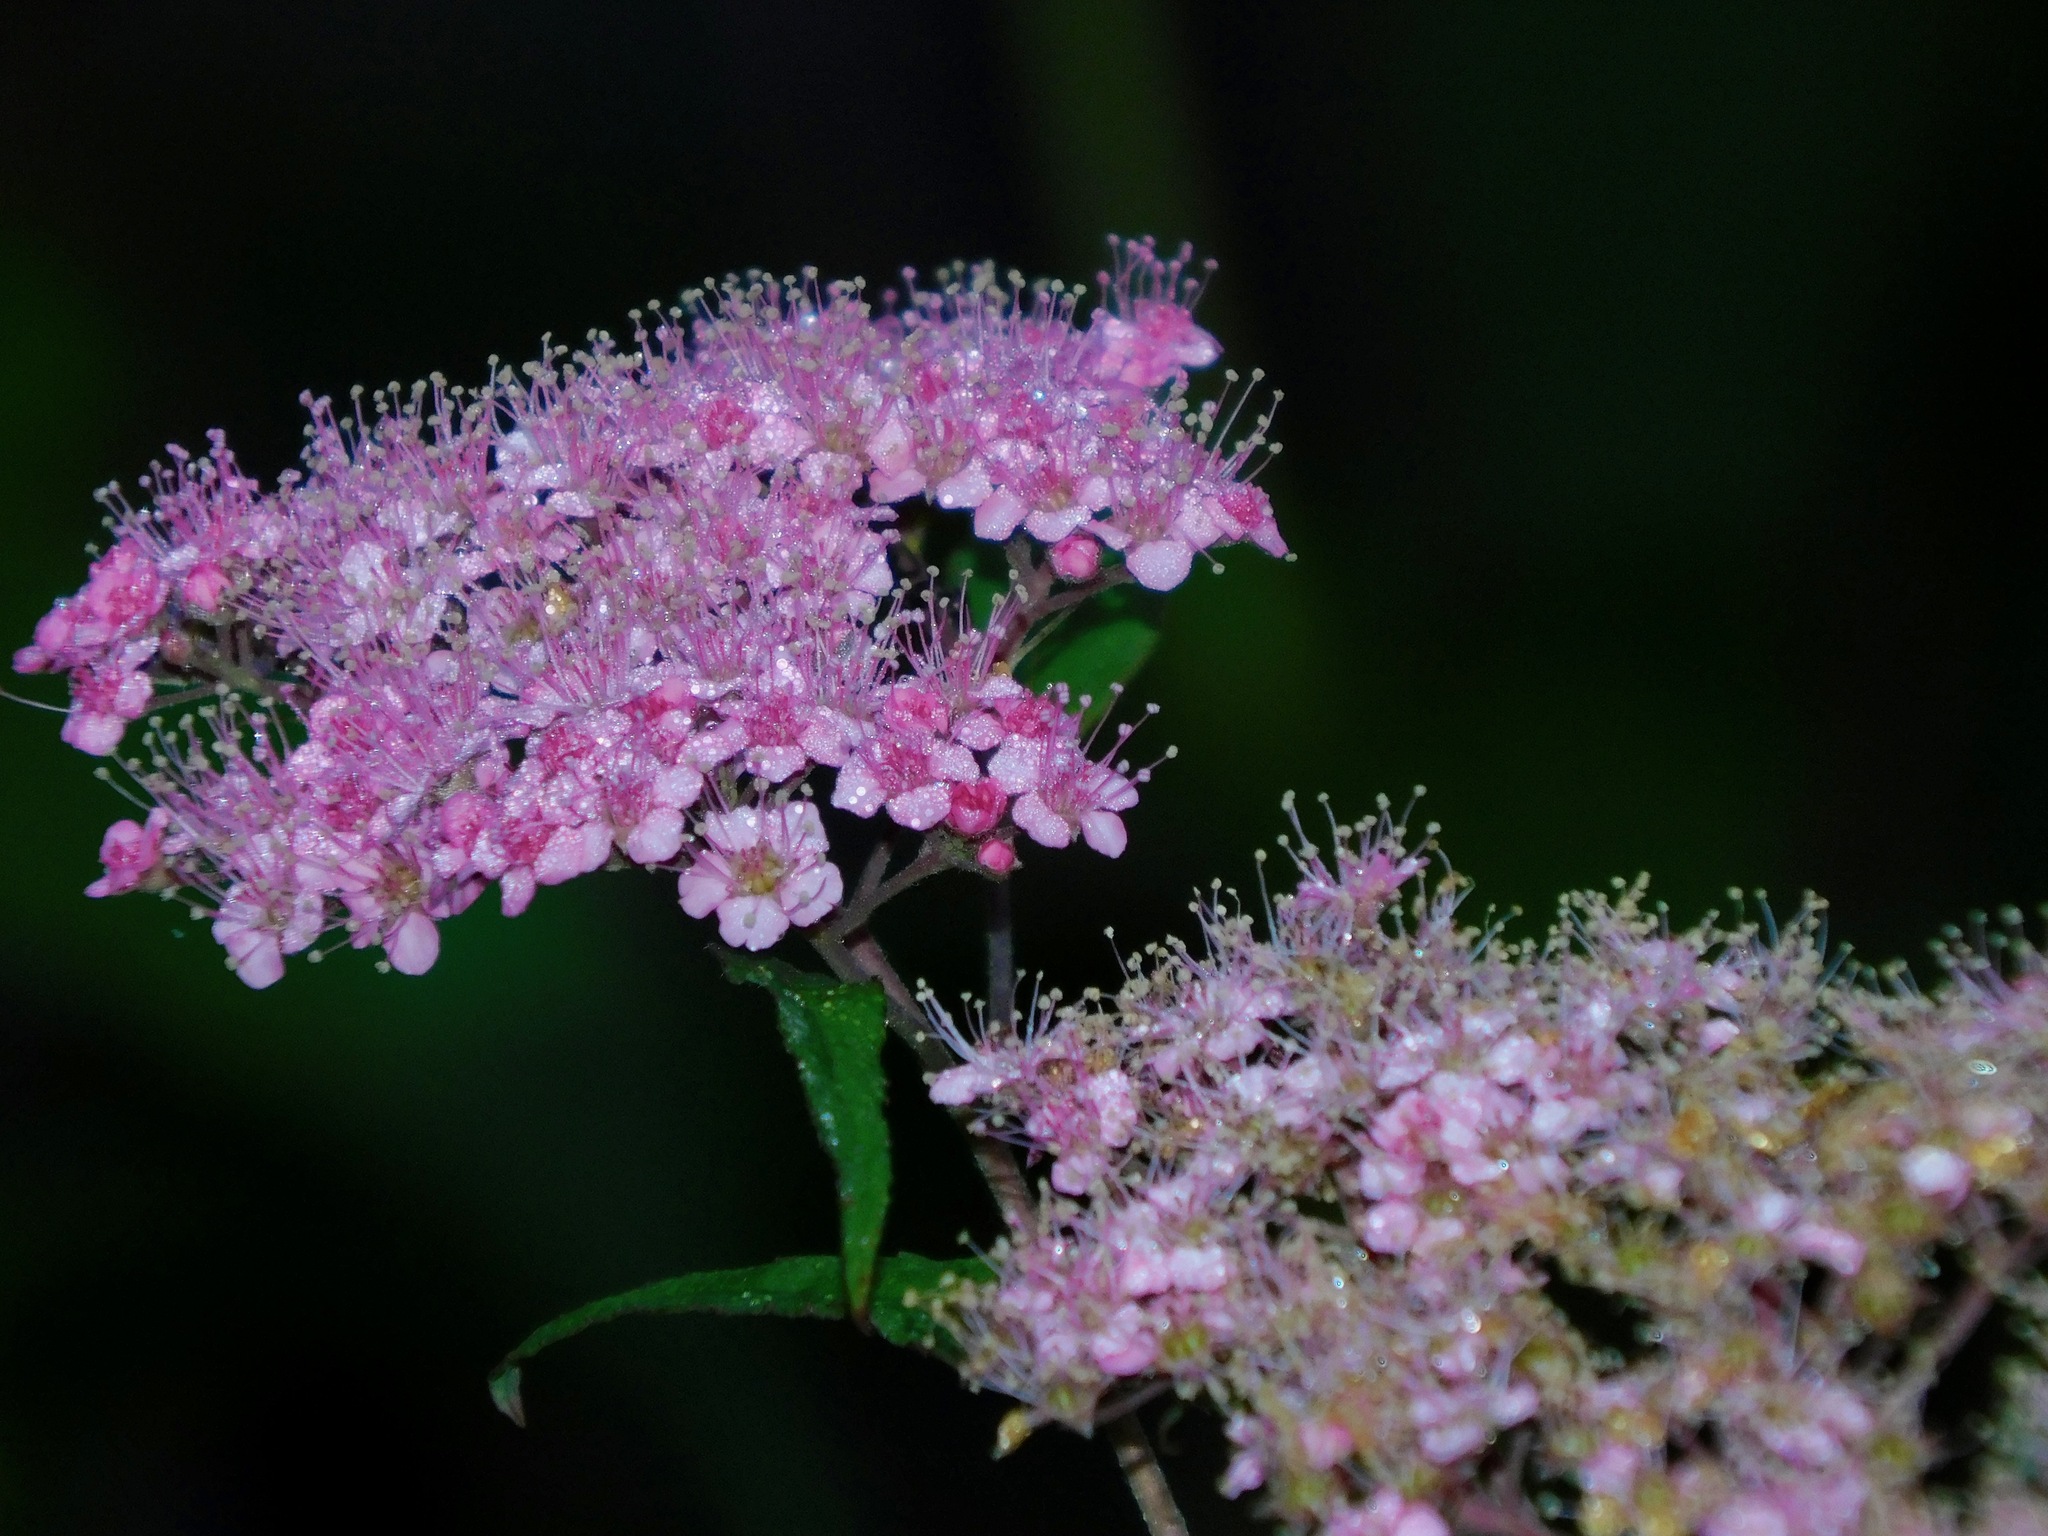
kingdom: Plantae
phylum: Tracheophyta
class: Magnoliopsida
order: Rosales
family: Rosaceae
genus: Spiraea
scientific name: Spiraea japonica
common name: Japanese spiraea
